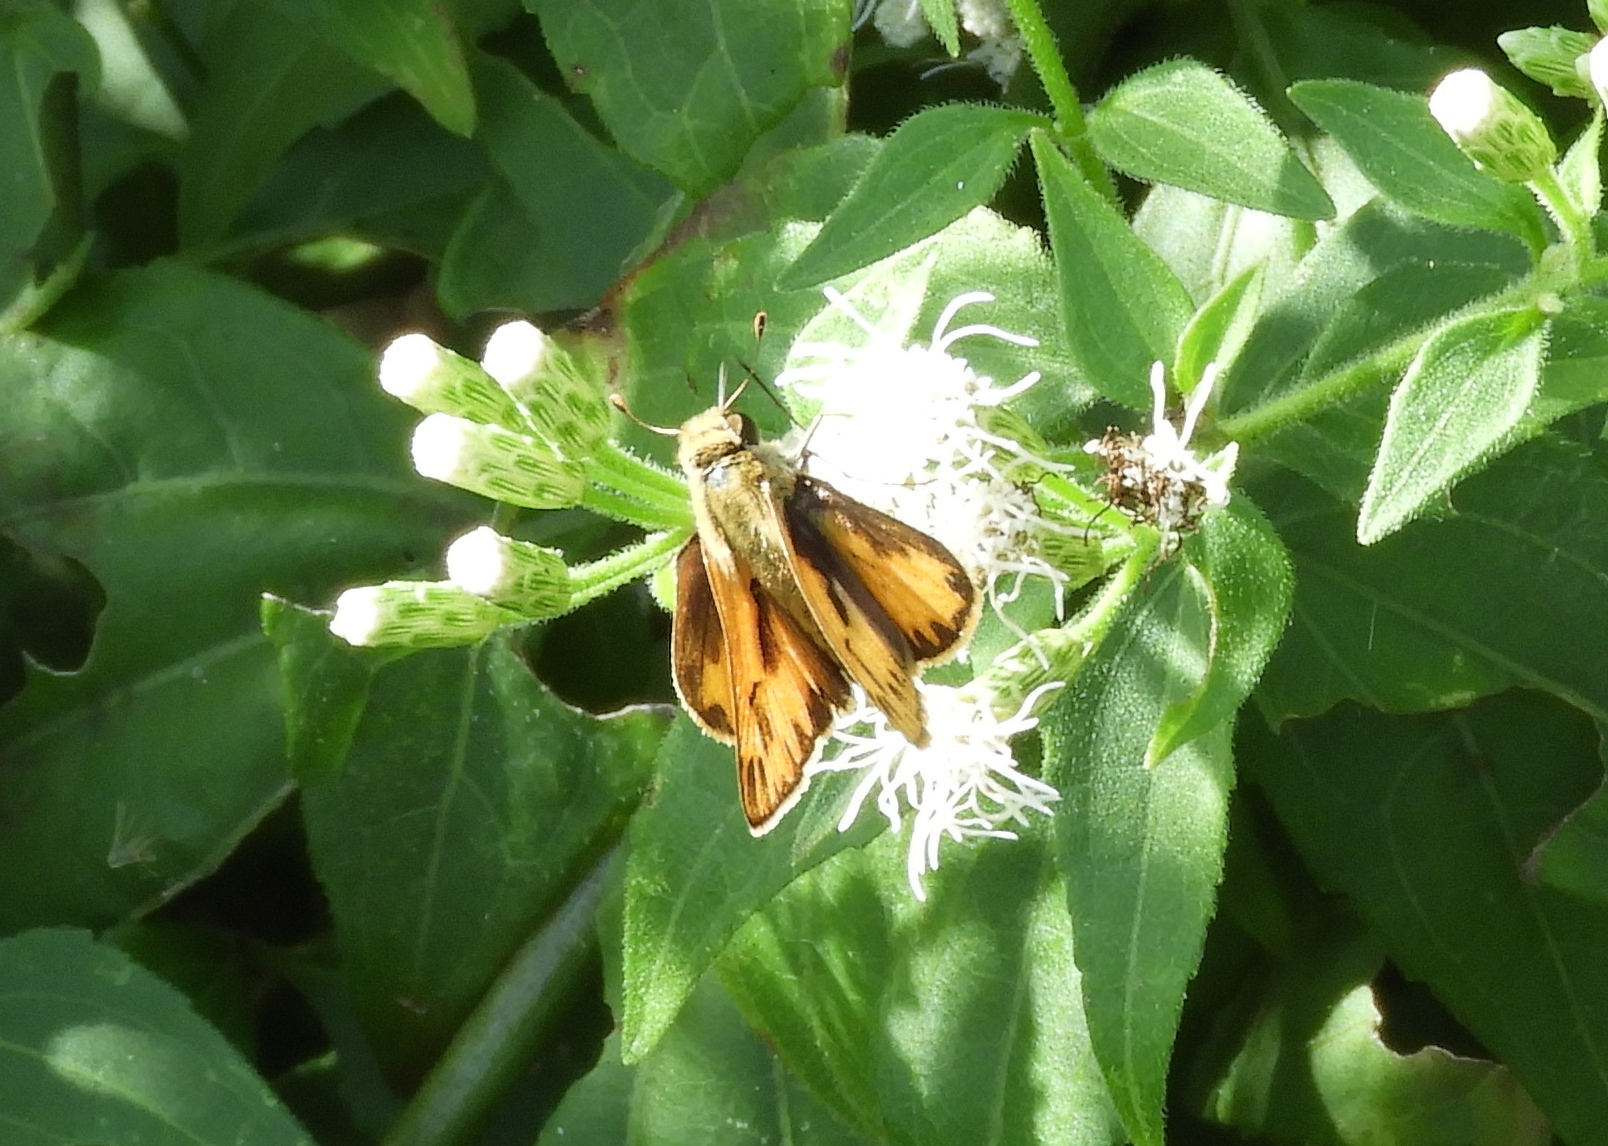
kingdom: Animalia
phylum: Arthropoda
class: Insecta
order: Lepidoptera
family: Hesperiidae
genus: Hylephila
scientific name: Hylephila
